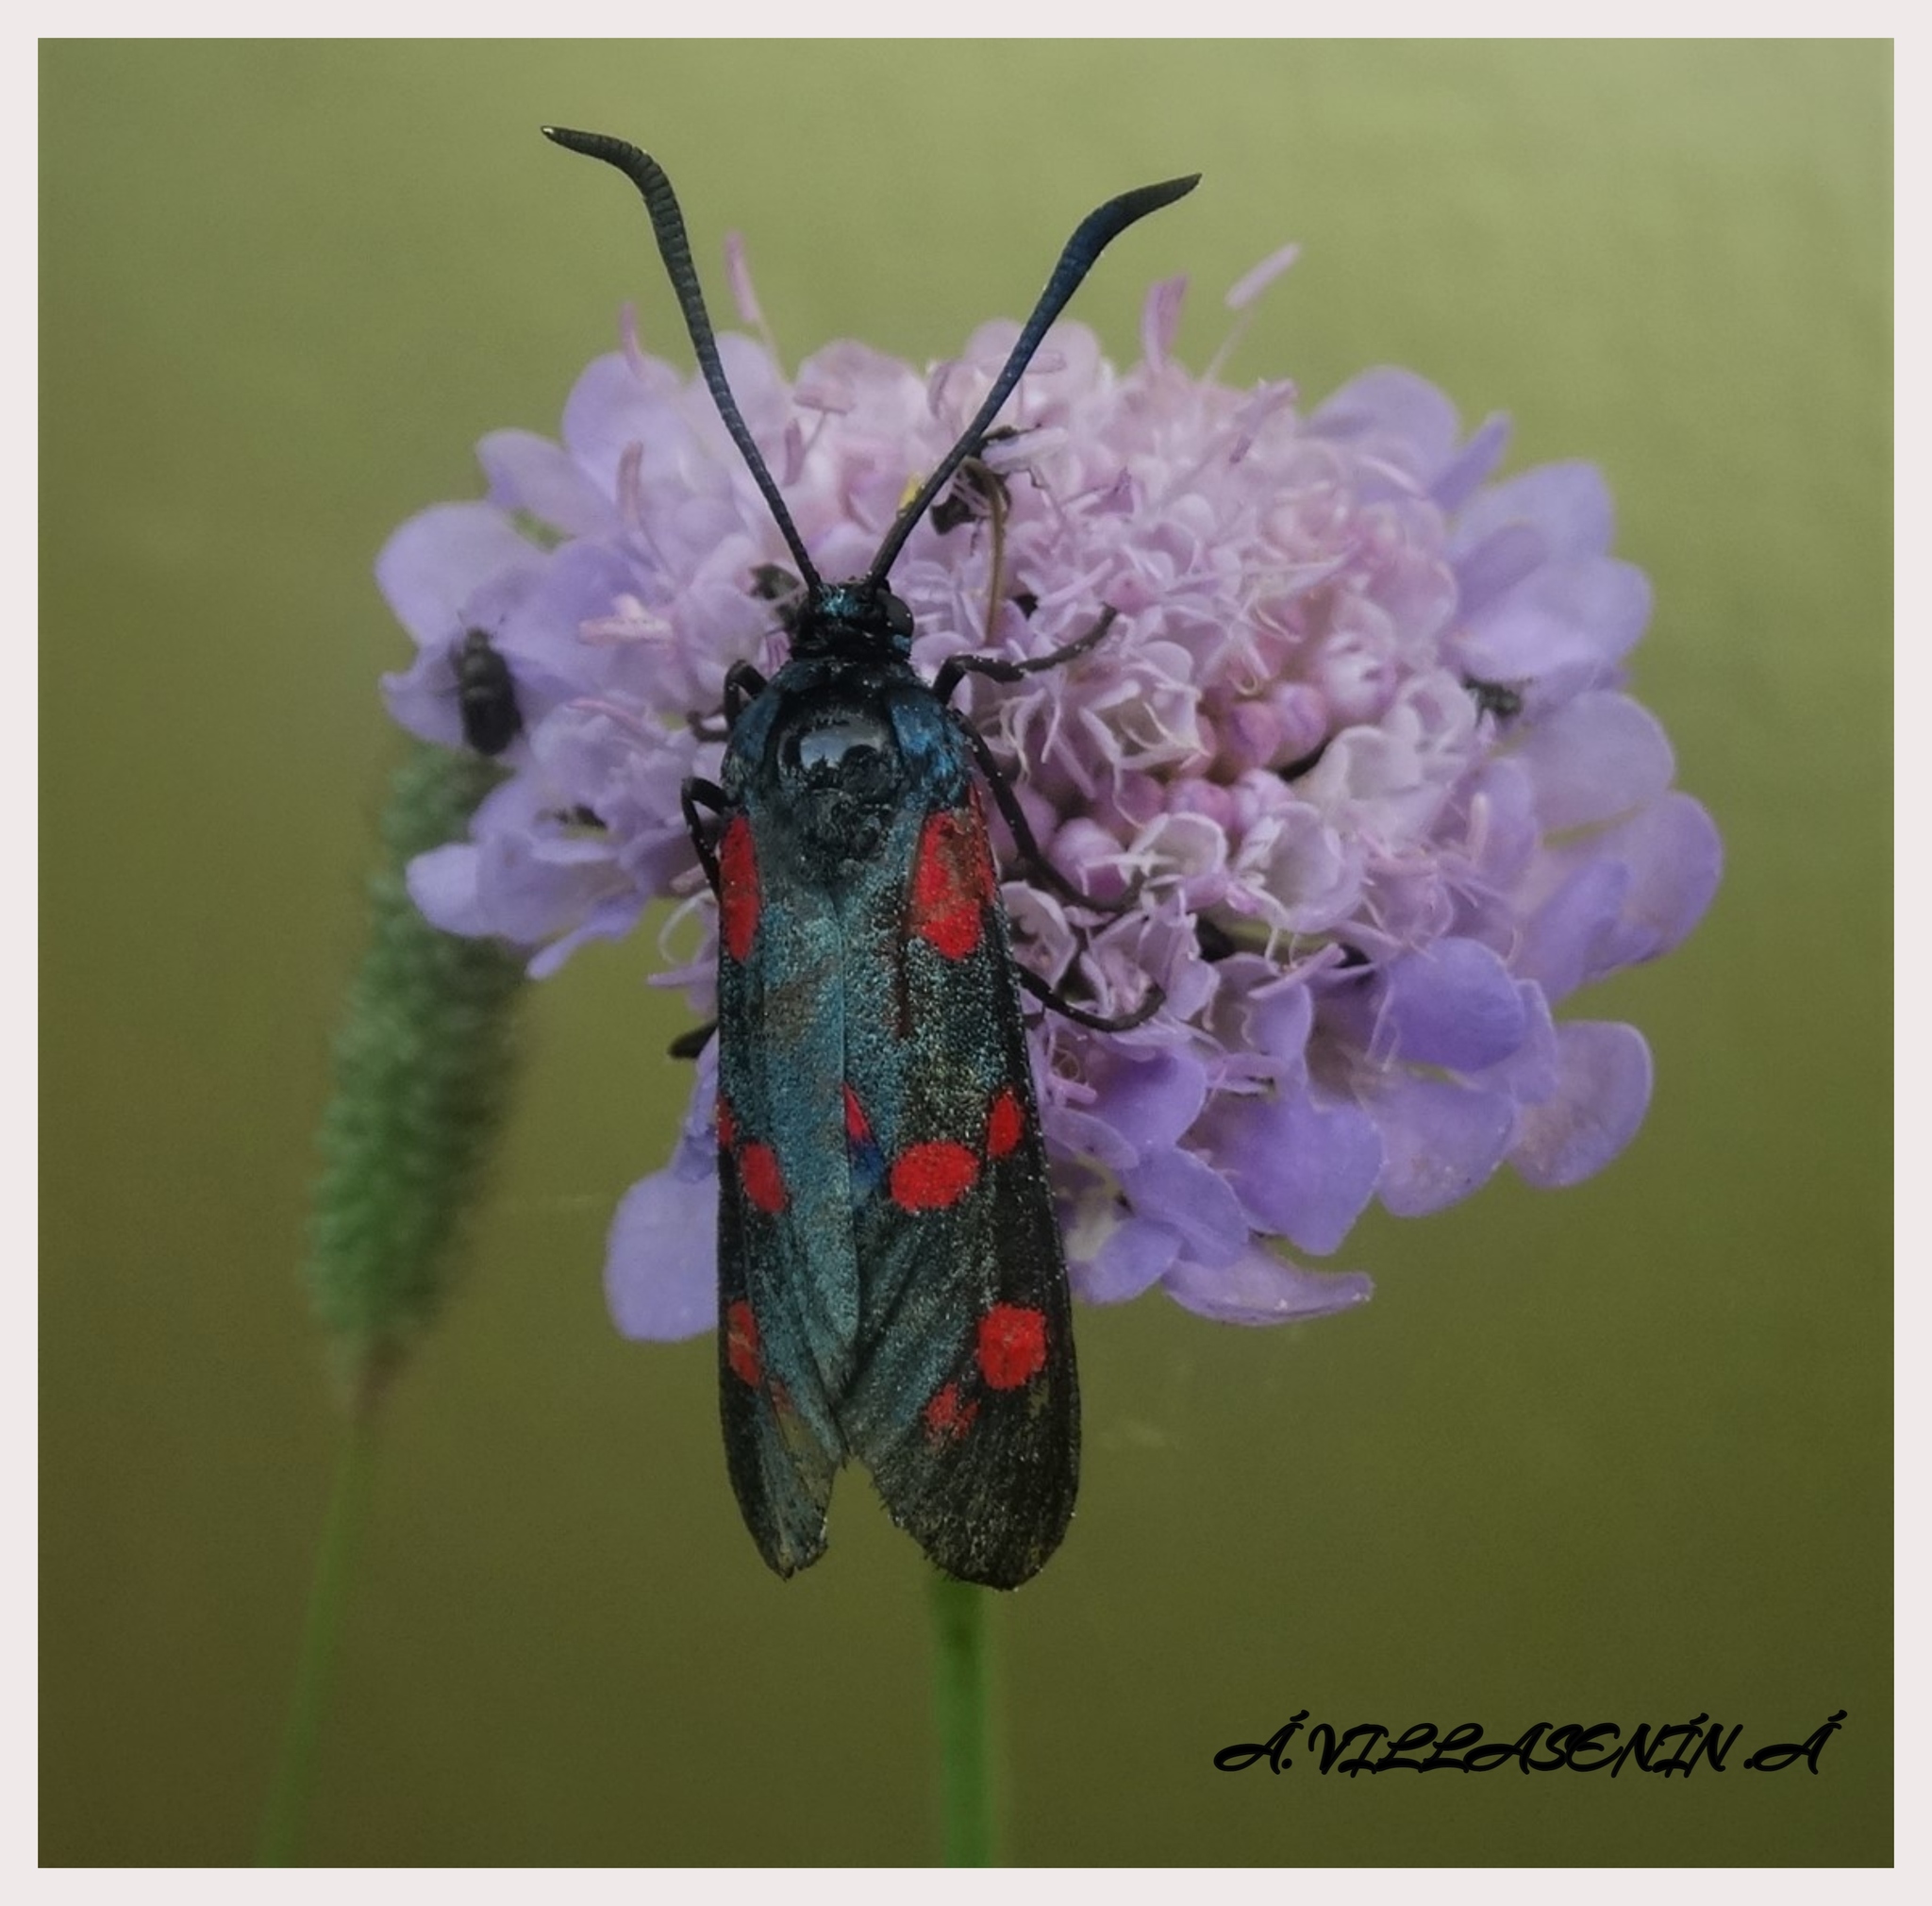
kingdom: Animalia
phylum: Arthropoda
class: Insecta
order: Lepidoptera
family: Zygaenidae
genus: Zygaena
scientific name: Zygaena filipendulae
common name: Six-spot burnet
